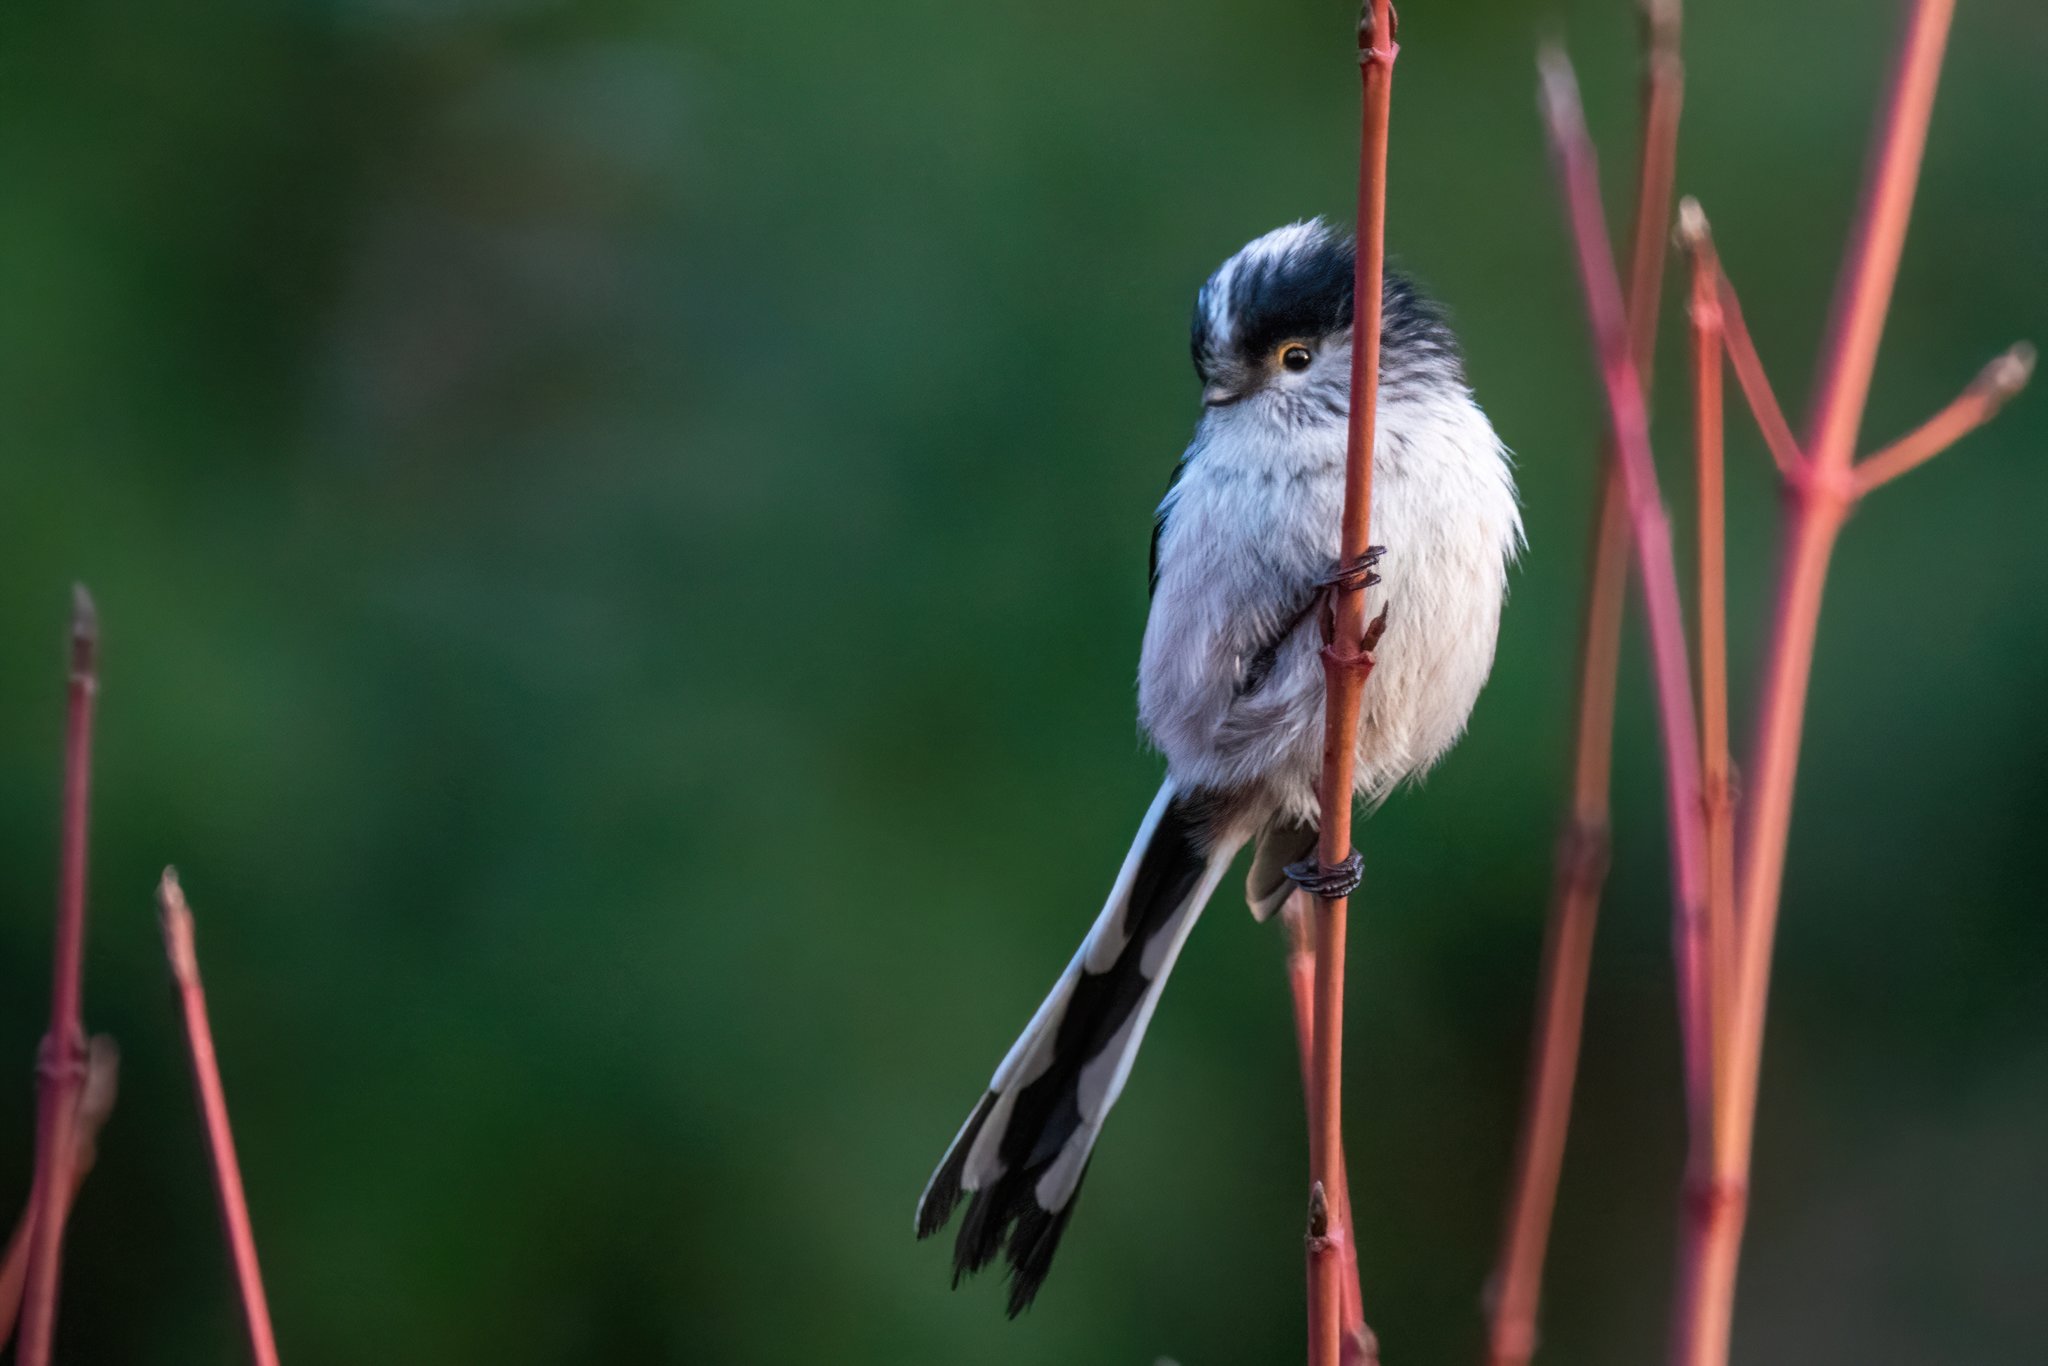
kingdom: Animalia
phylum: Chordata
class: Aves
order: Passeriformes
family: Aegithalidae
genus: Aegithalos
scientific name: Aegithalos caudatus
